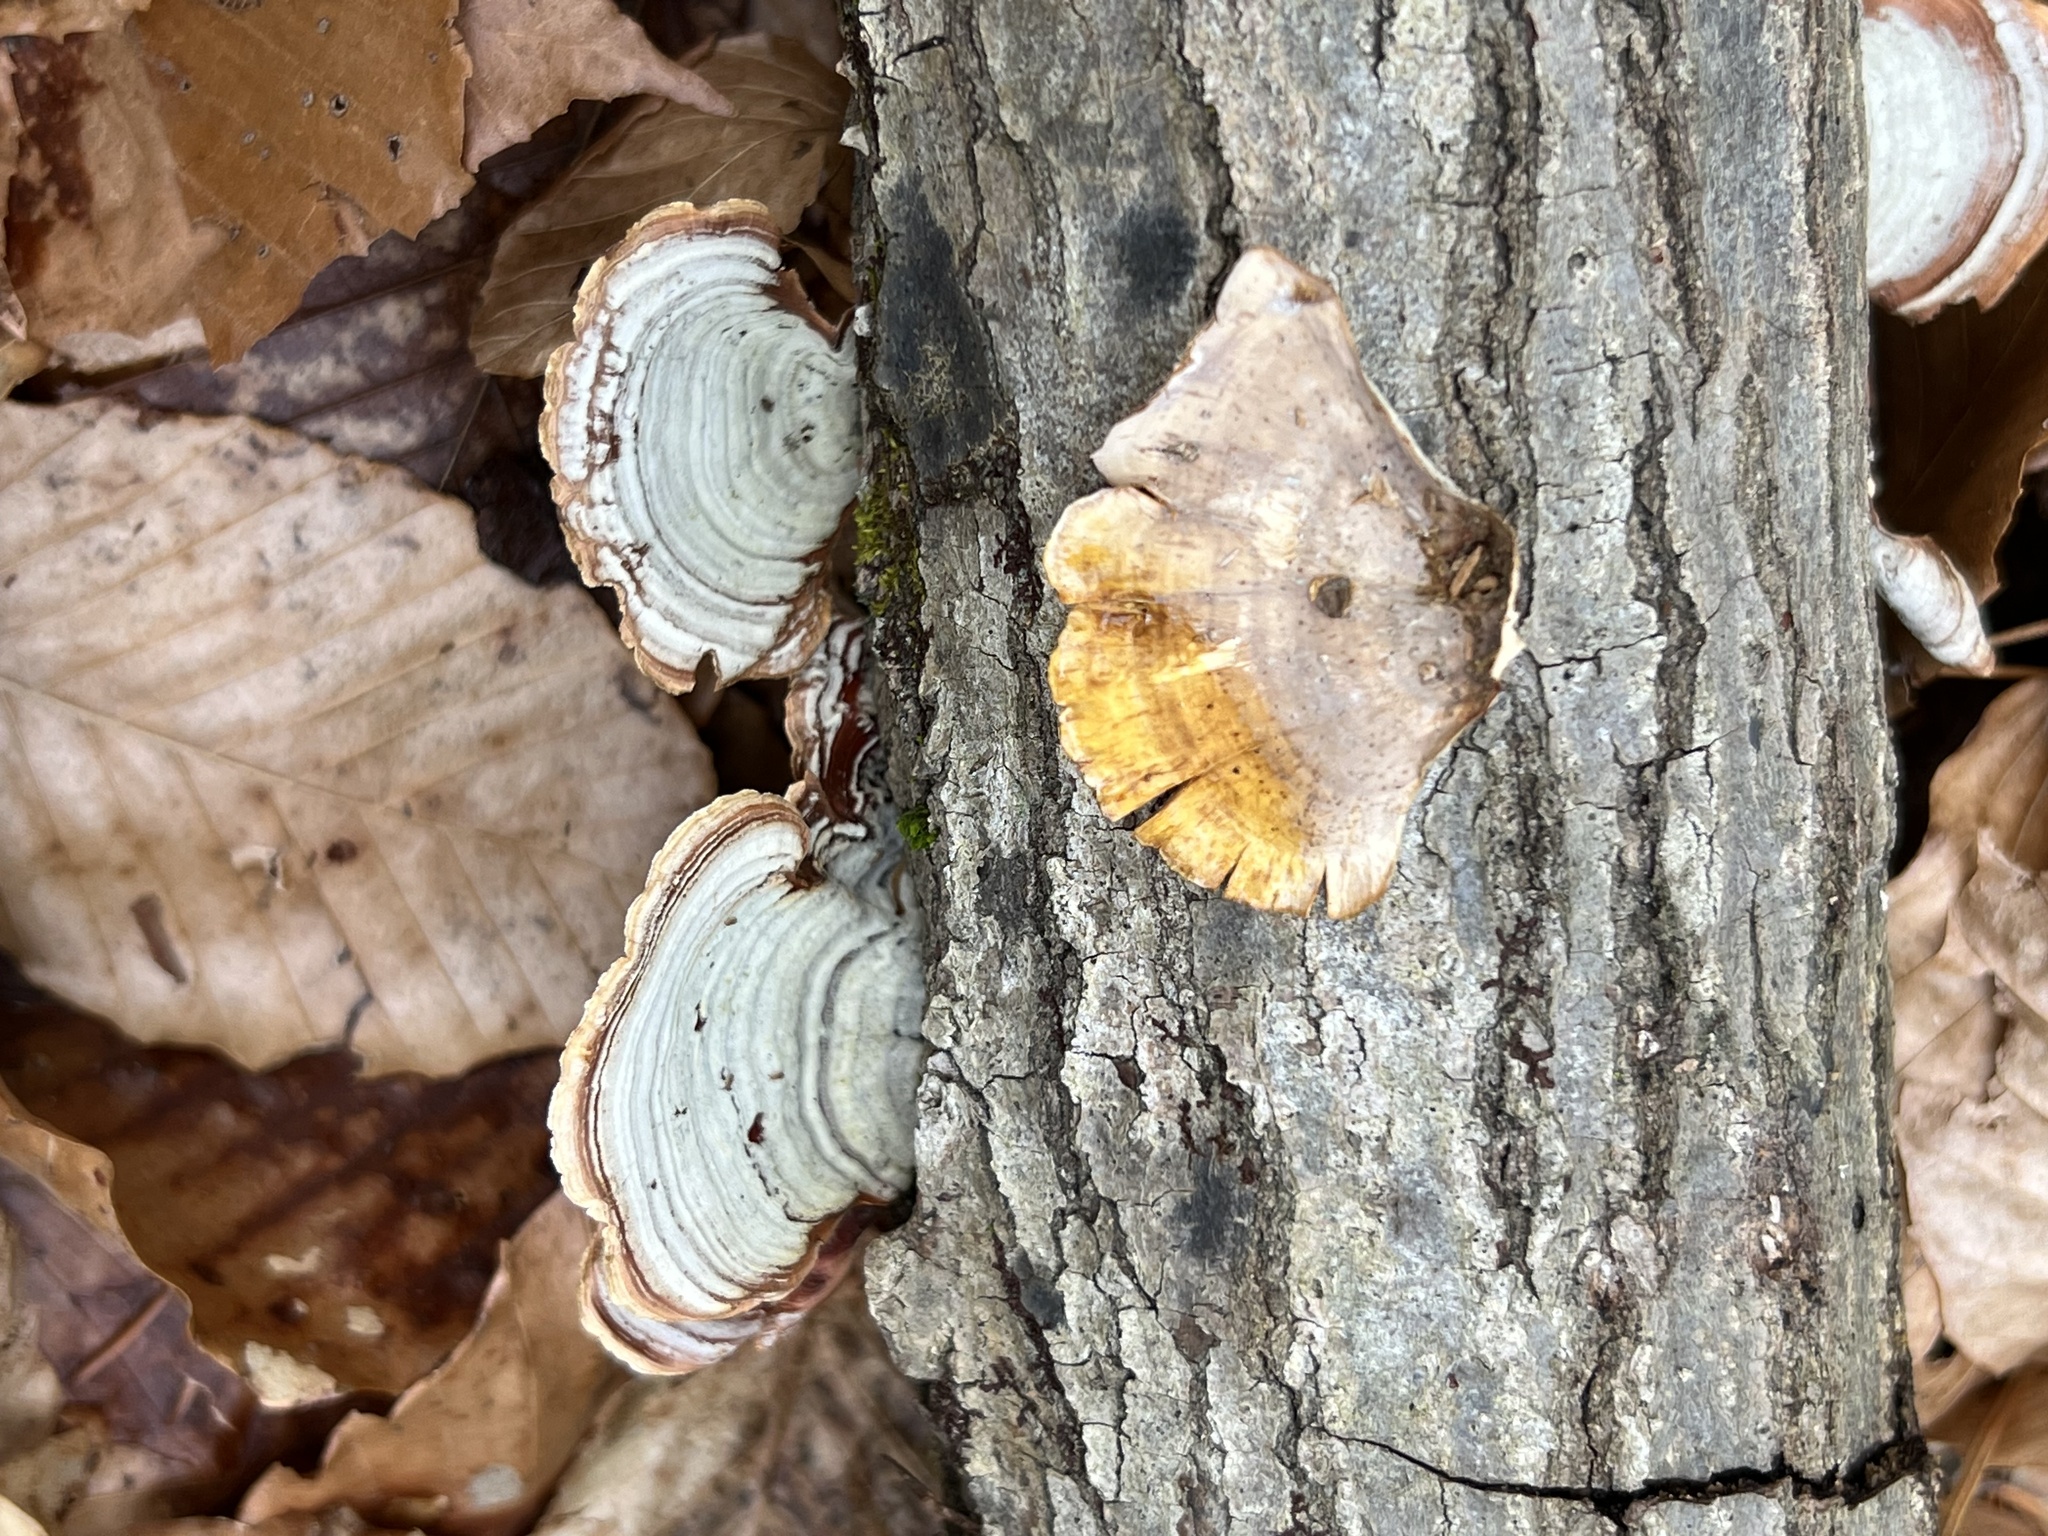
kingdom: Fungi
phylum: Basidiomycota
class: Agaricomycetes
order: Russulales
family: Stereaceae
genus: Stereum
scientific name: Stereum lobatum
